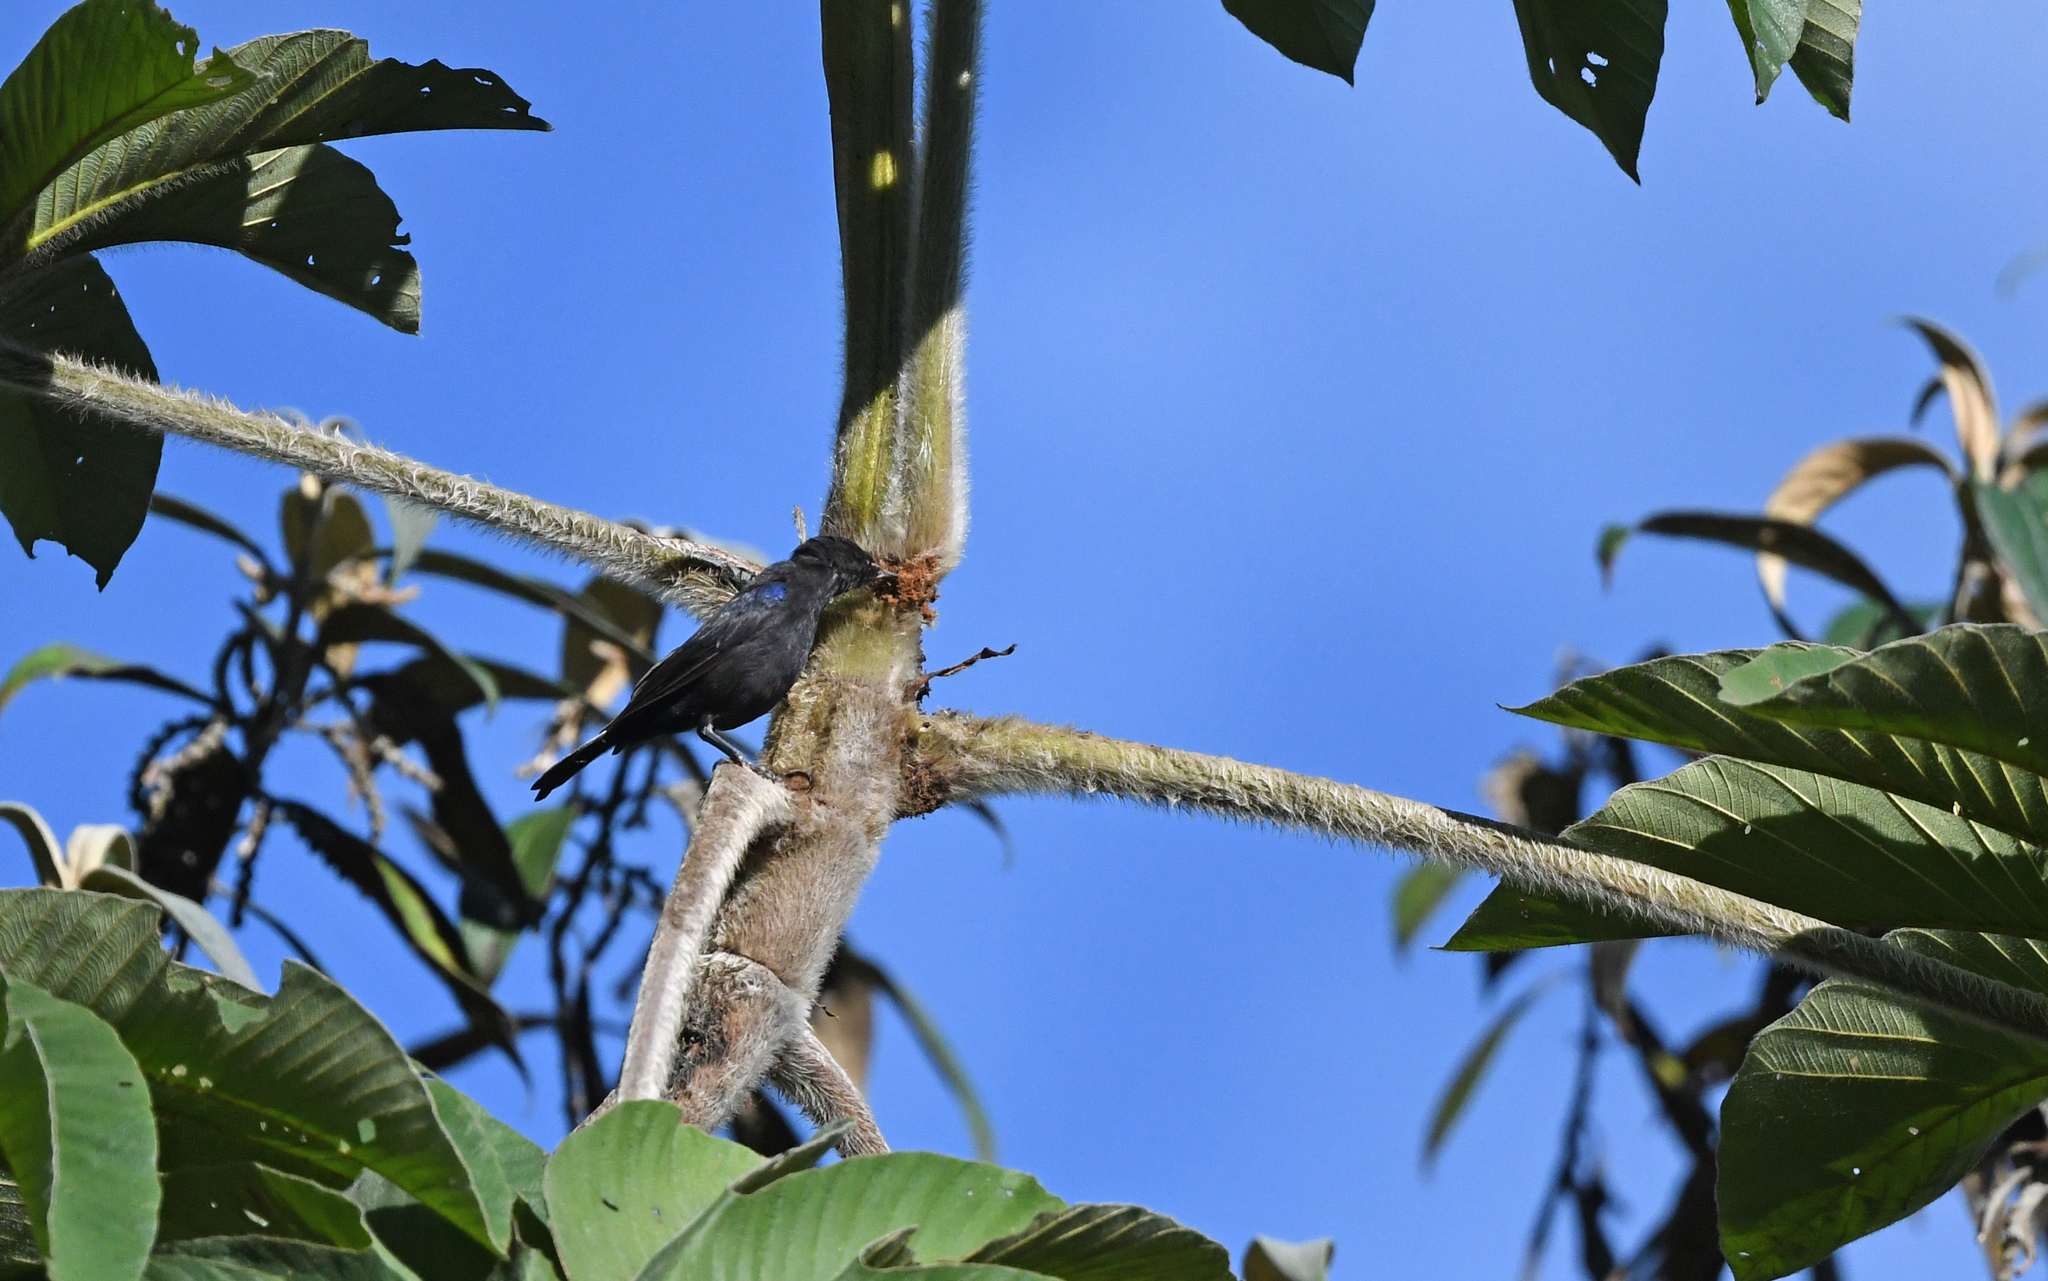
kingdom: Animalia
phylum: Chordata
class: Aves
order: Passeriformes
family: Thraupidae
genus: Conirostrum
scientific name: Conirostrum albifrons
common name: Capped conebill
